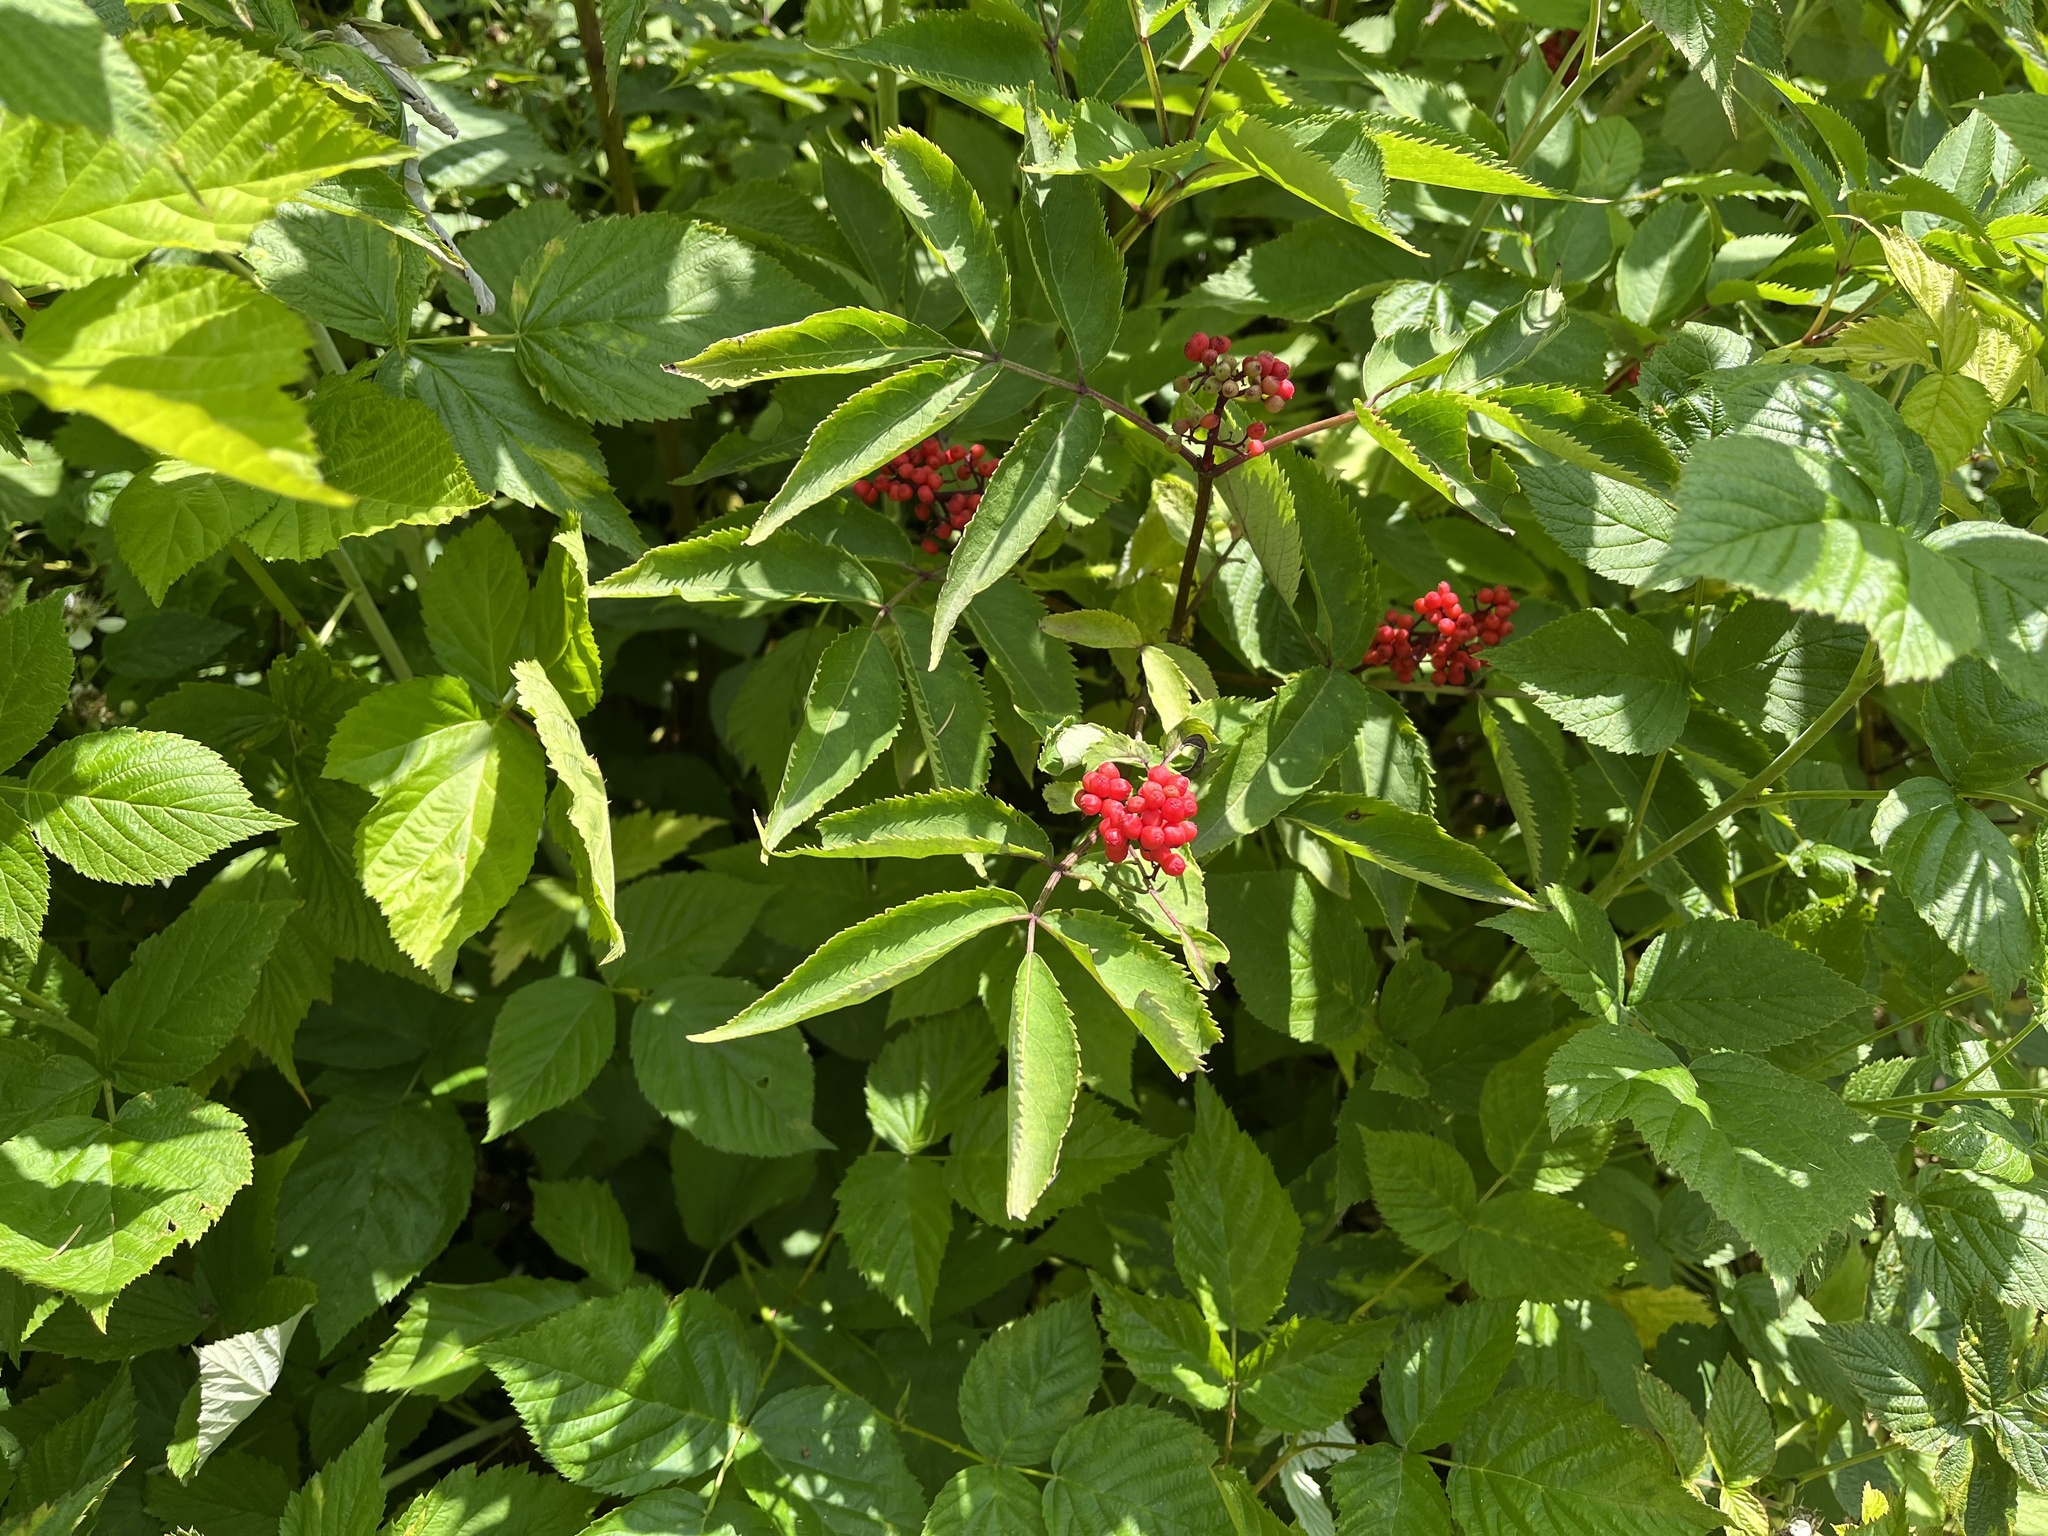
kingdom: Plantae
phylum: Tracheophyta
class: Magnoliopsida
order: Dipsacales
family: Viburnaceae
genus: Sambucus
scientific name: Sambucus racemosa
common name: Red-berried elder
